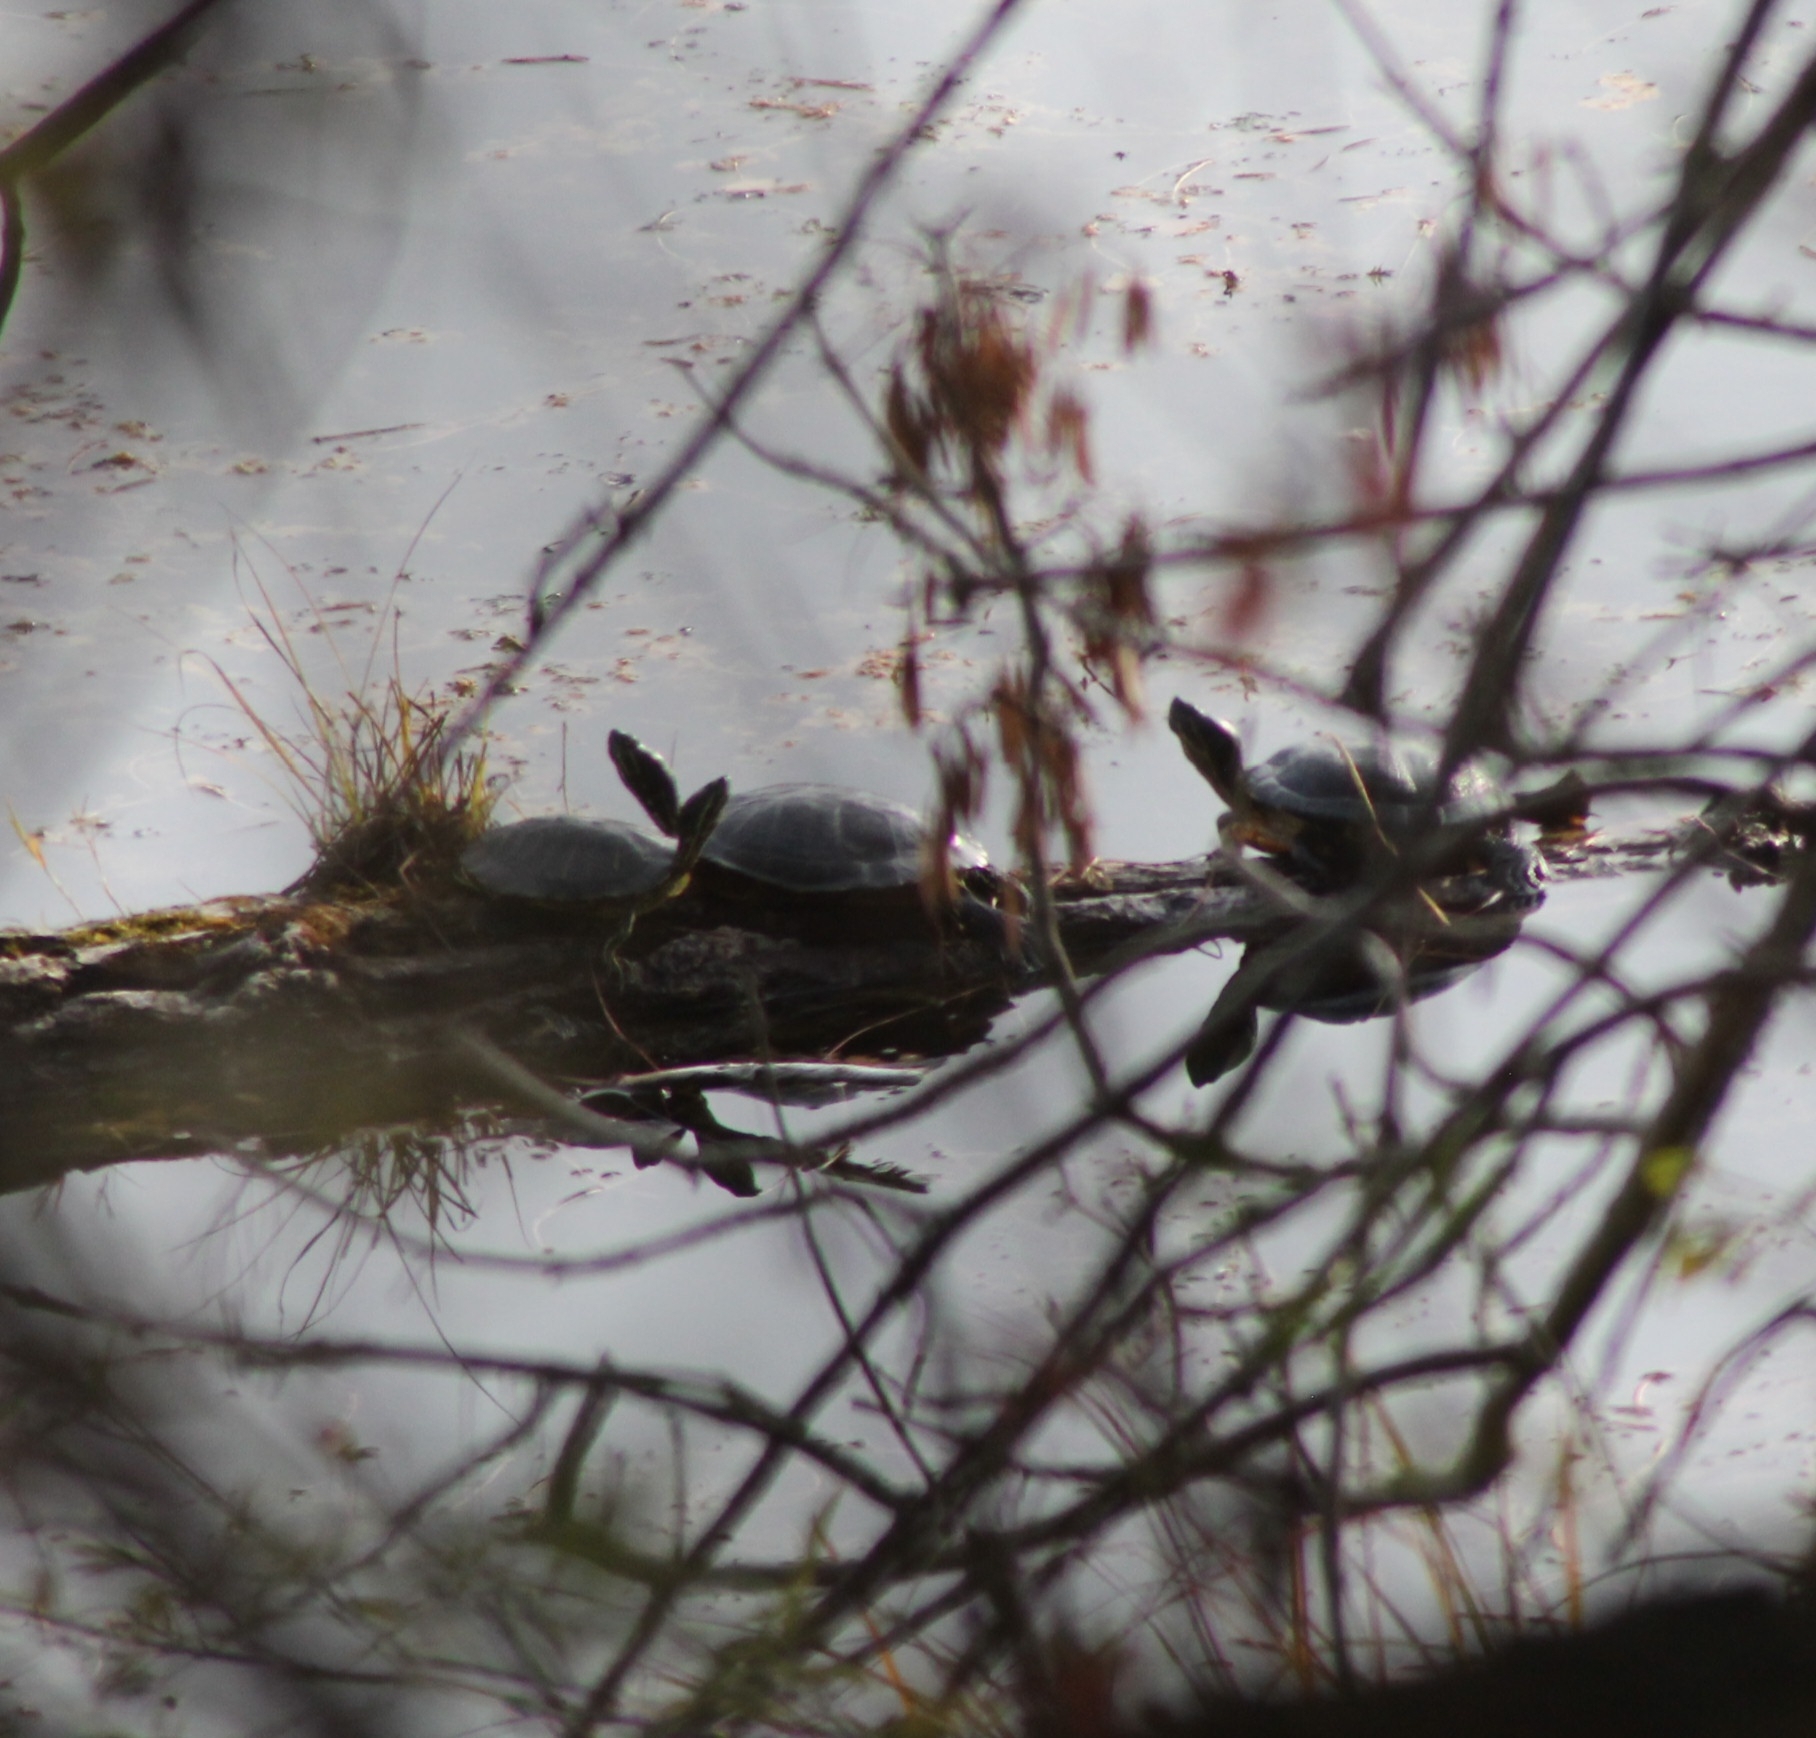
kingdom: Animalia
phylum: Chordata
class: Testudines
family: Emydidae
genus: Trachemys
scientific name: Trachemys scripta
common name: Slider
